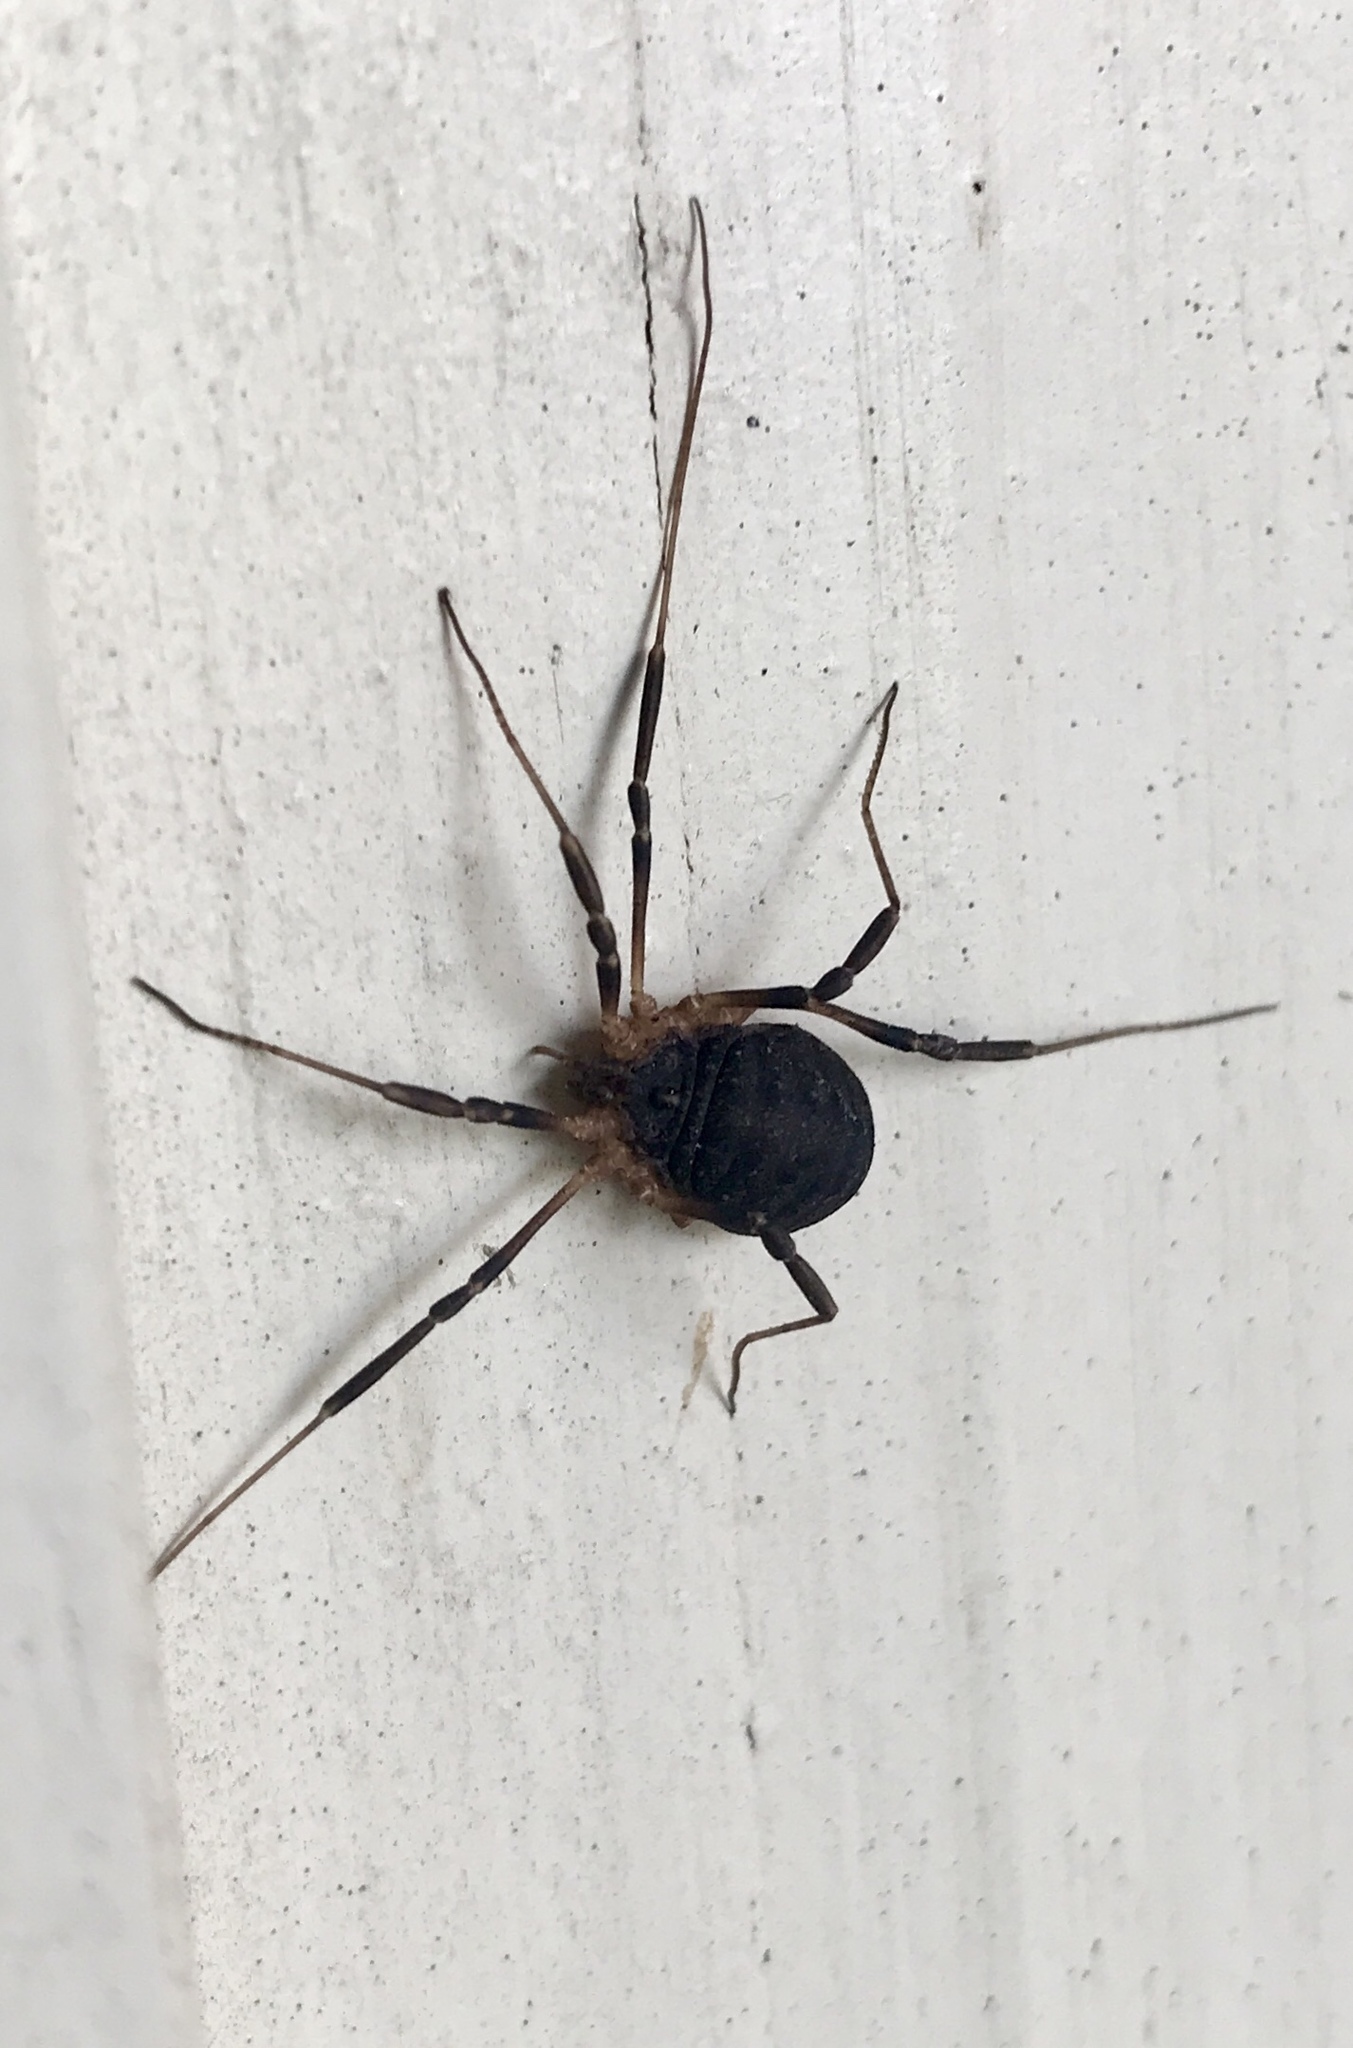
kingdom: Animalia
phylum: Arthropoda
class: Arachnida
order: Opiliones
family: Sclerosomatidae
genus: Eumesosoma
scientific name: Eumesosoma roeweri
